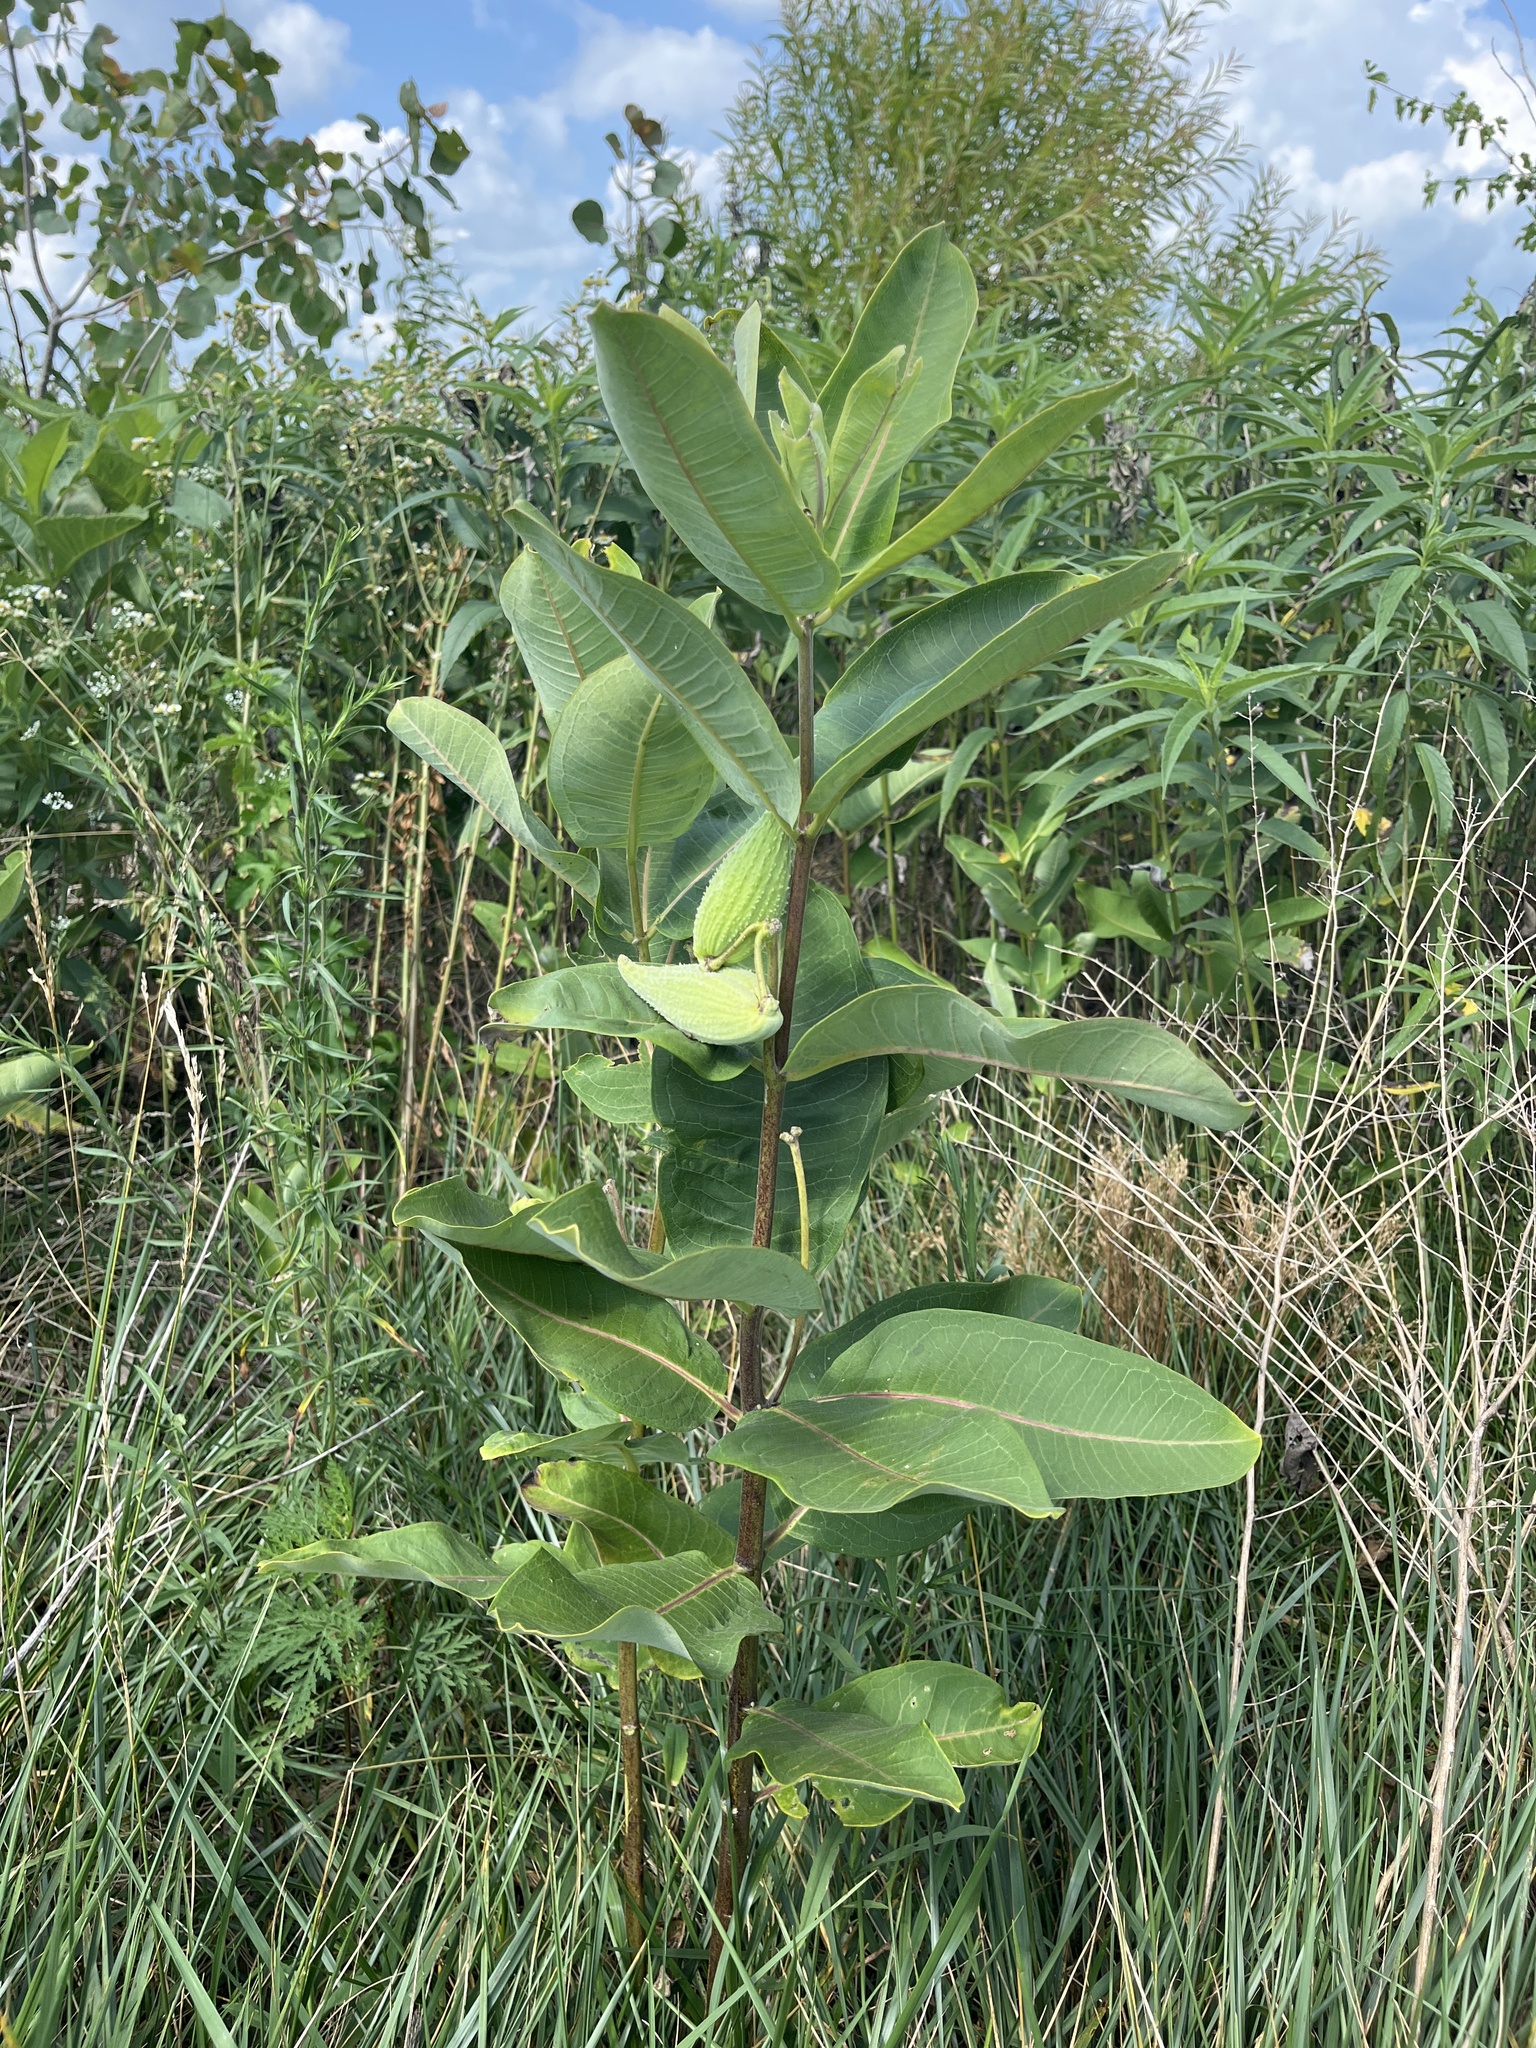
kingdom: Plantae
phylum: Tracheophyta
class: Magnoliopsida
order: Gentianales
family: Apocynaceae
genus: Asclepias
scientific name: Asclepias syriaca
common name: Common milkweed
